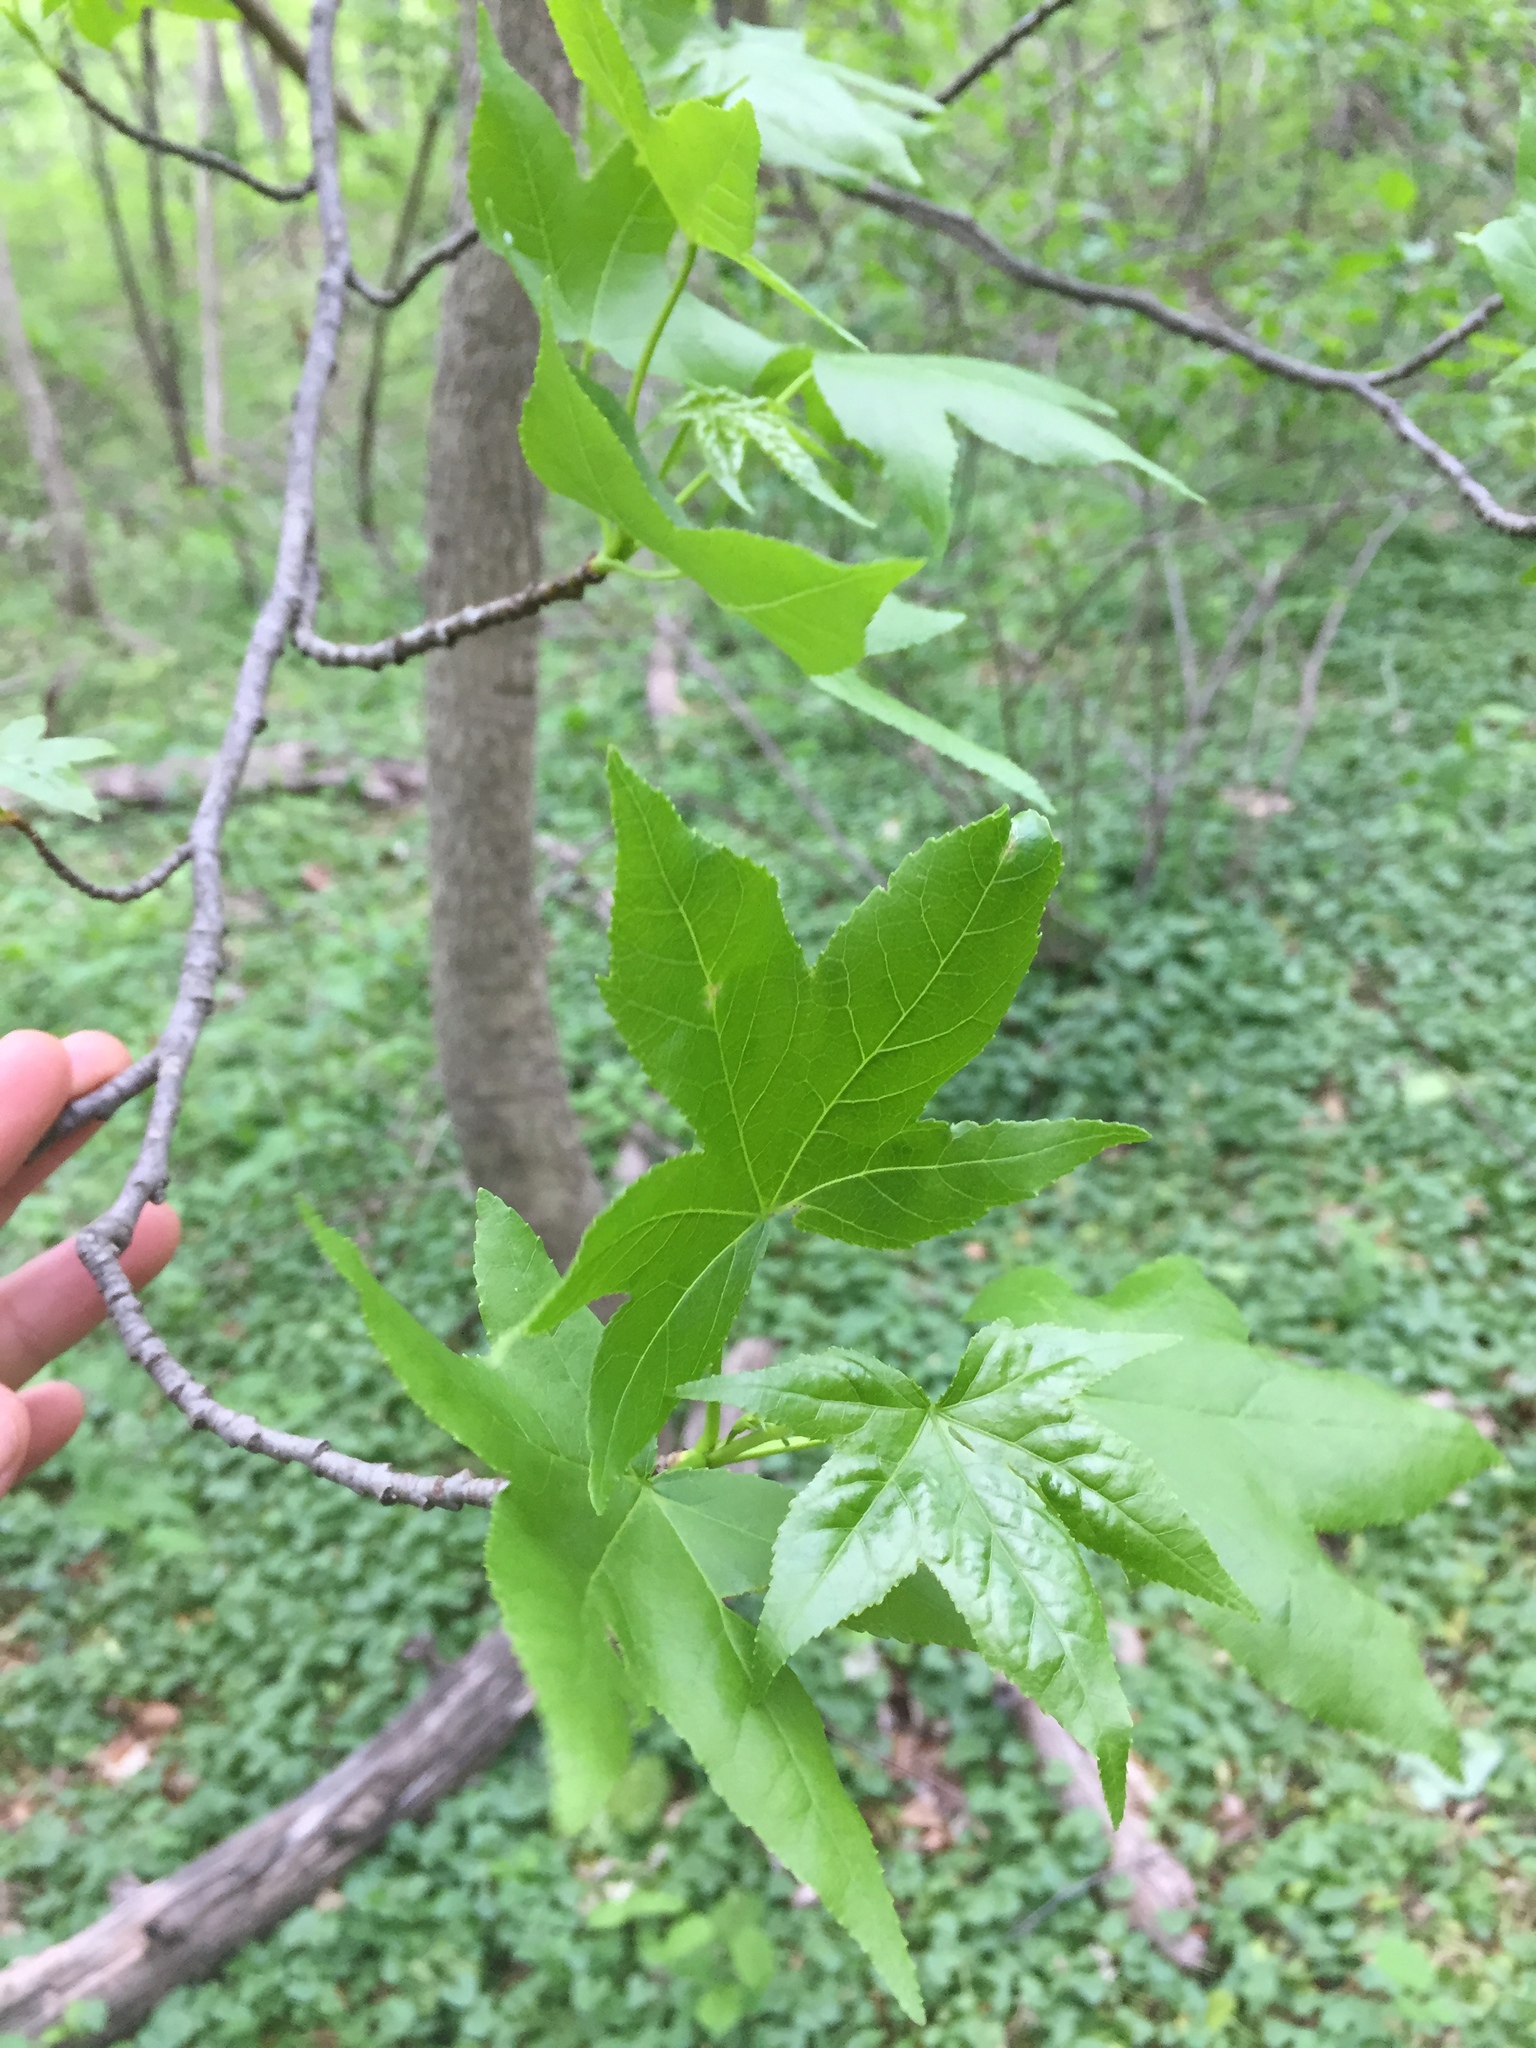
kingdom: Plantae
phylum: Tracheophyta
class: Magnoliopsida
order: Saxifragales
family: Altingiaceae
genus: Liquidambar
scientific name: Liquidambar styraciflua
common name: Sweet gum
